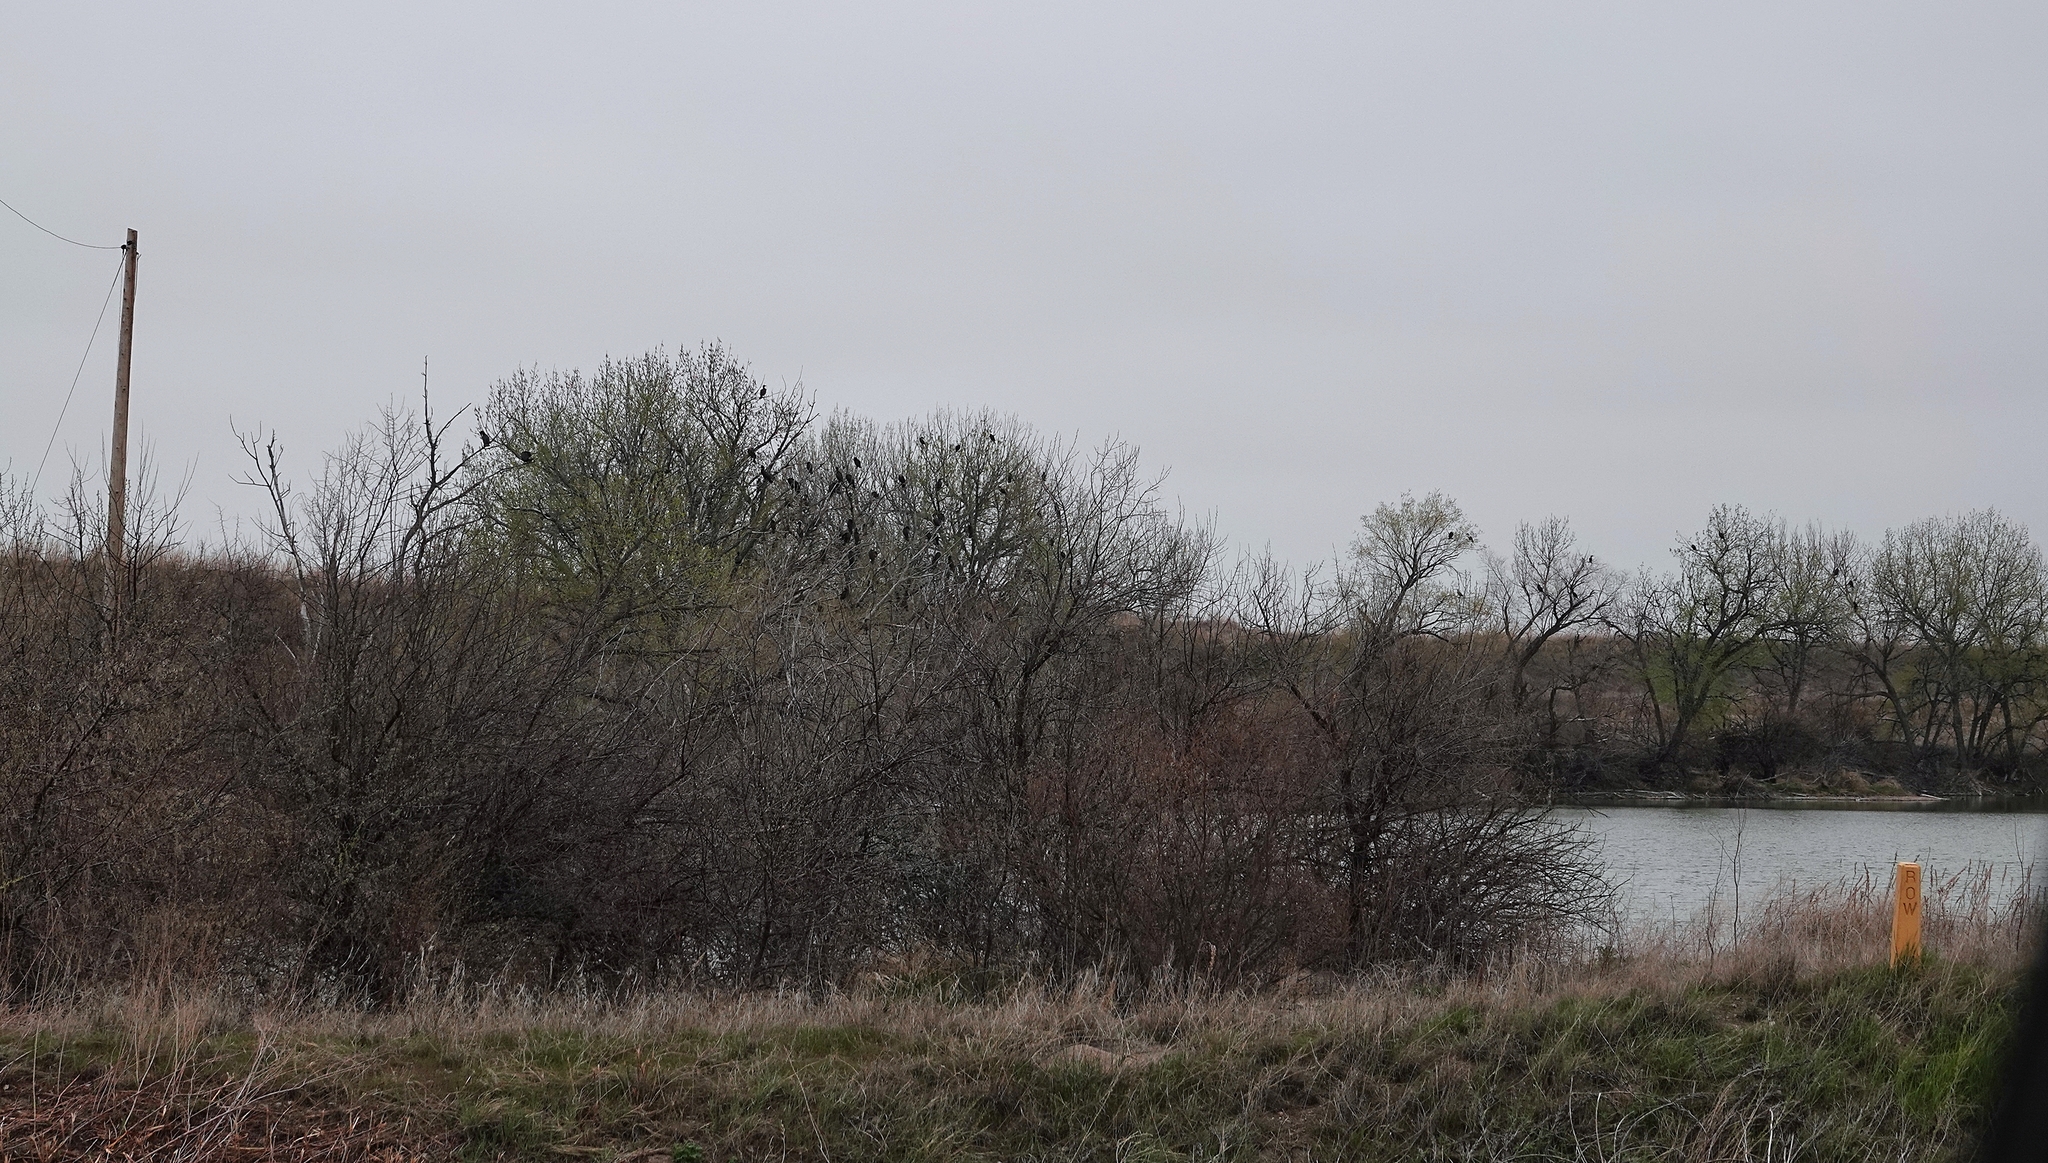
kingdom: Animalia
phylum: Chordata
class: Aves
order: Suliformes
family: Phalacrocoracidae
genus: Phalacrocorax
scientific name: Phalacrocorax auritus
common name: Double-crested cormorant
